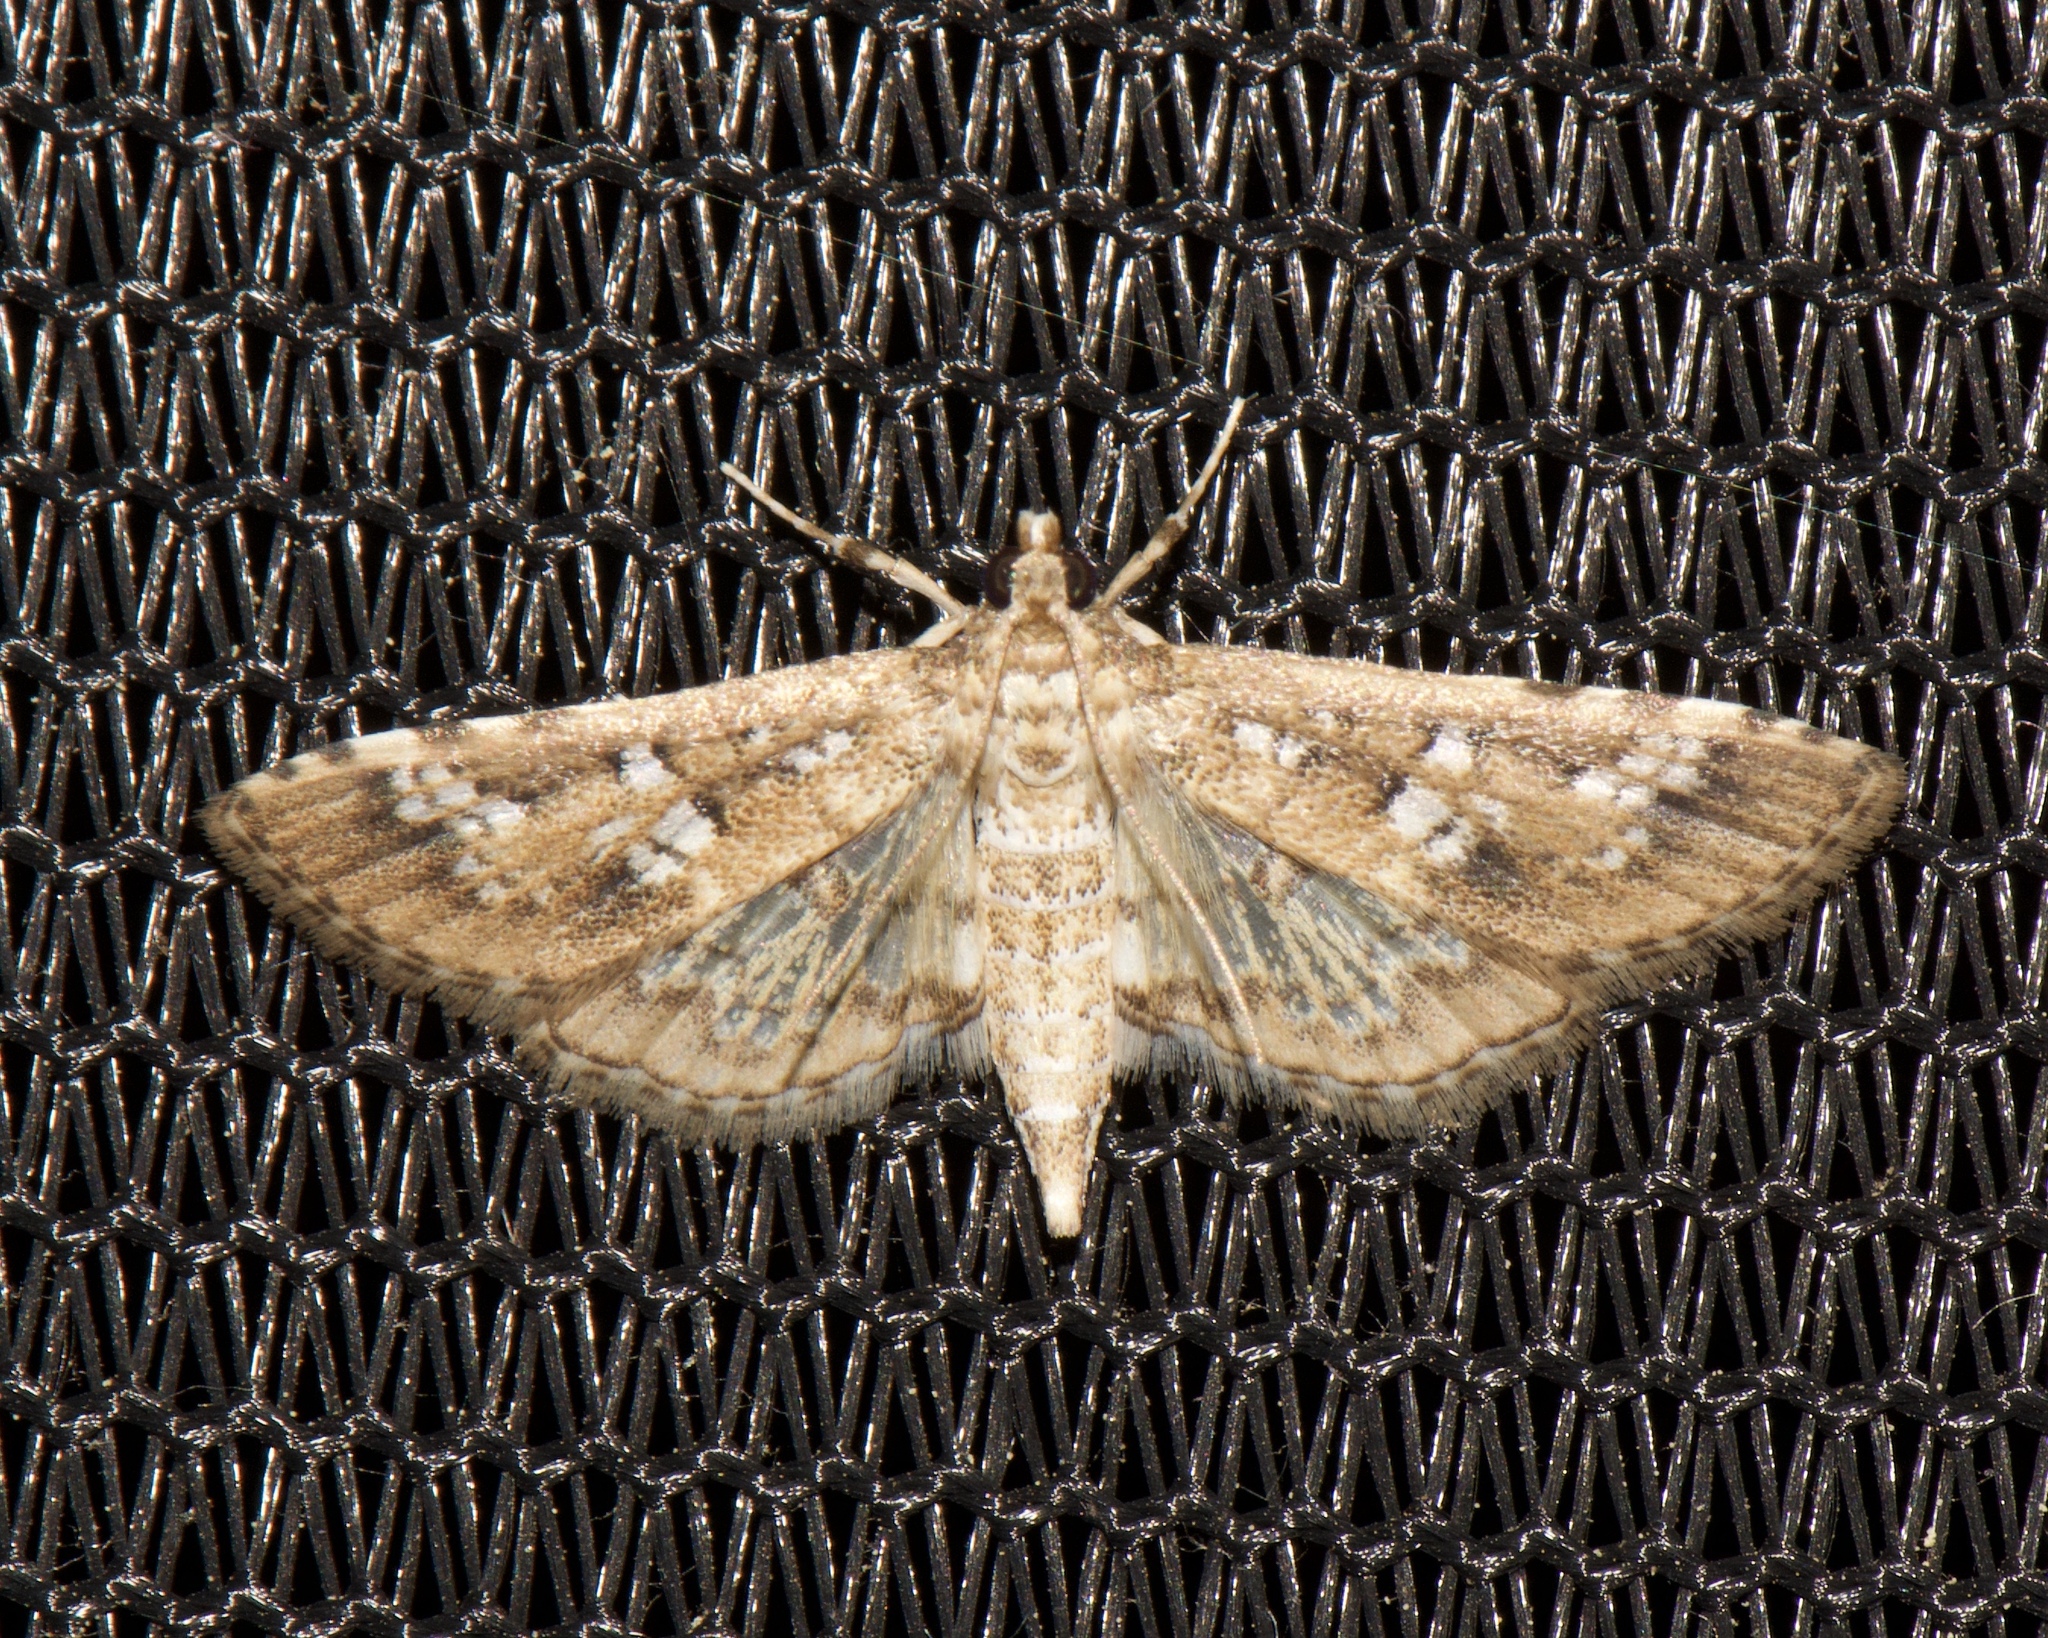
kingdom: Animalia
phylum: Arthropoda
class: Insecta
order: Lepidoptera
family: Crambidae
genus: Samea
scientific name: Samea multiplicalis
